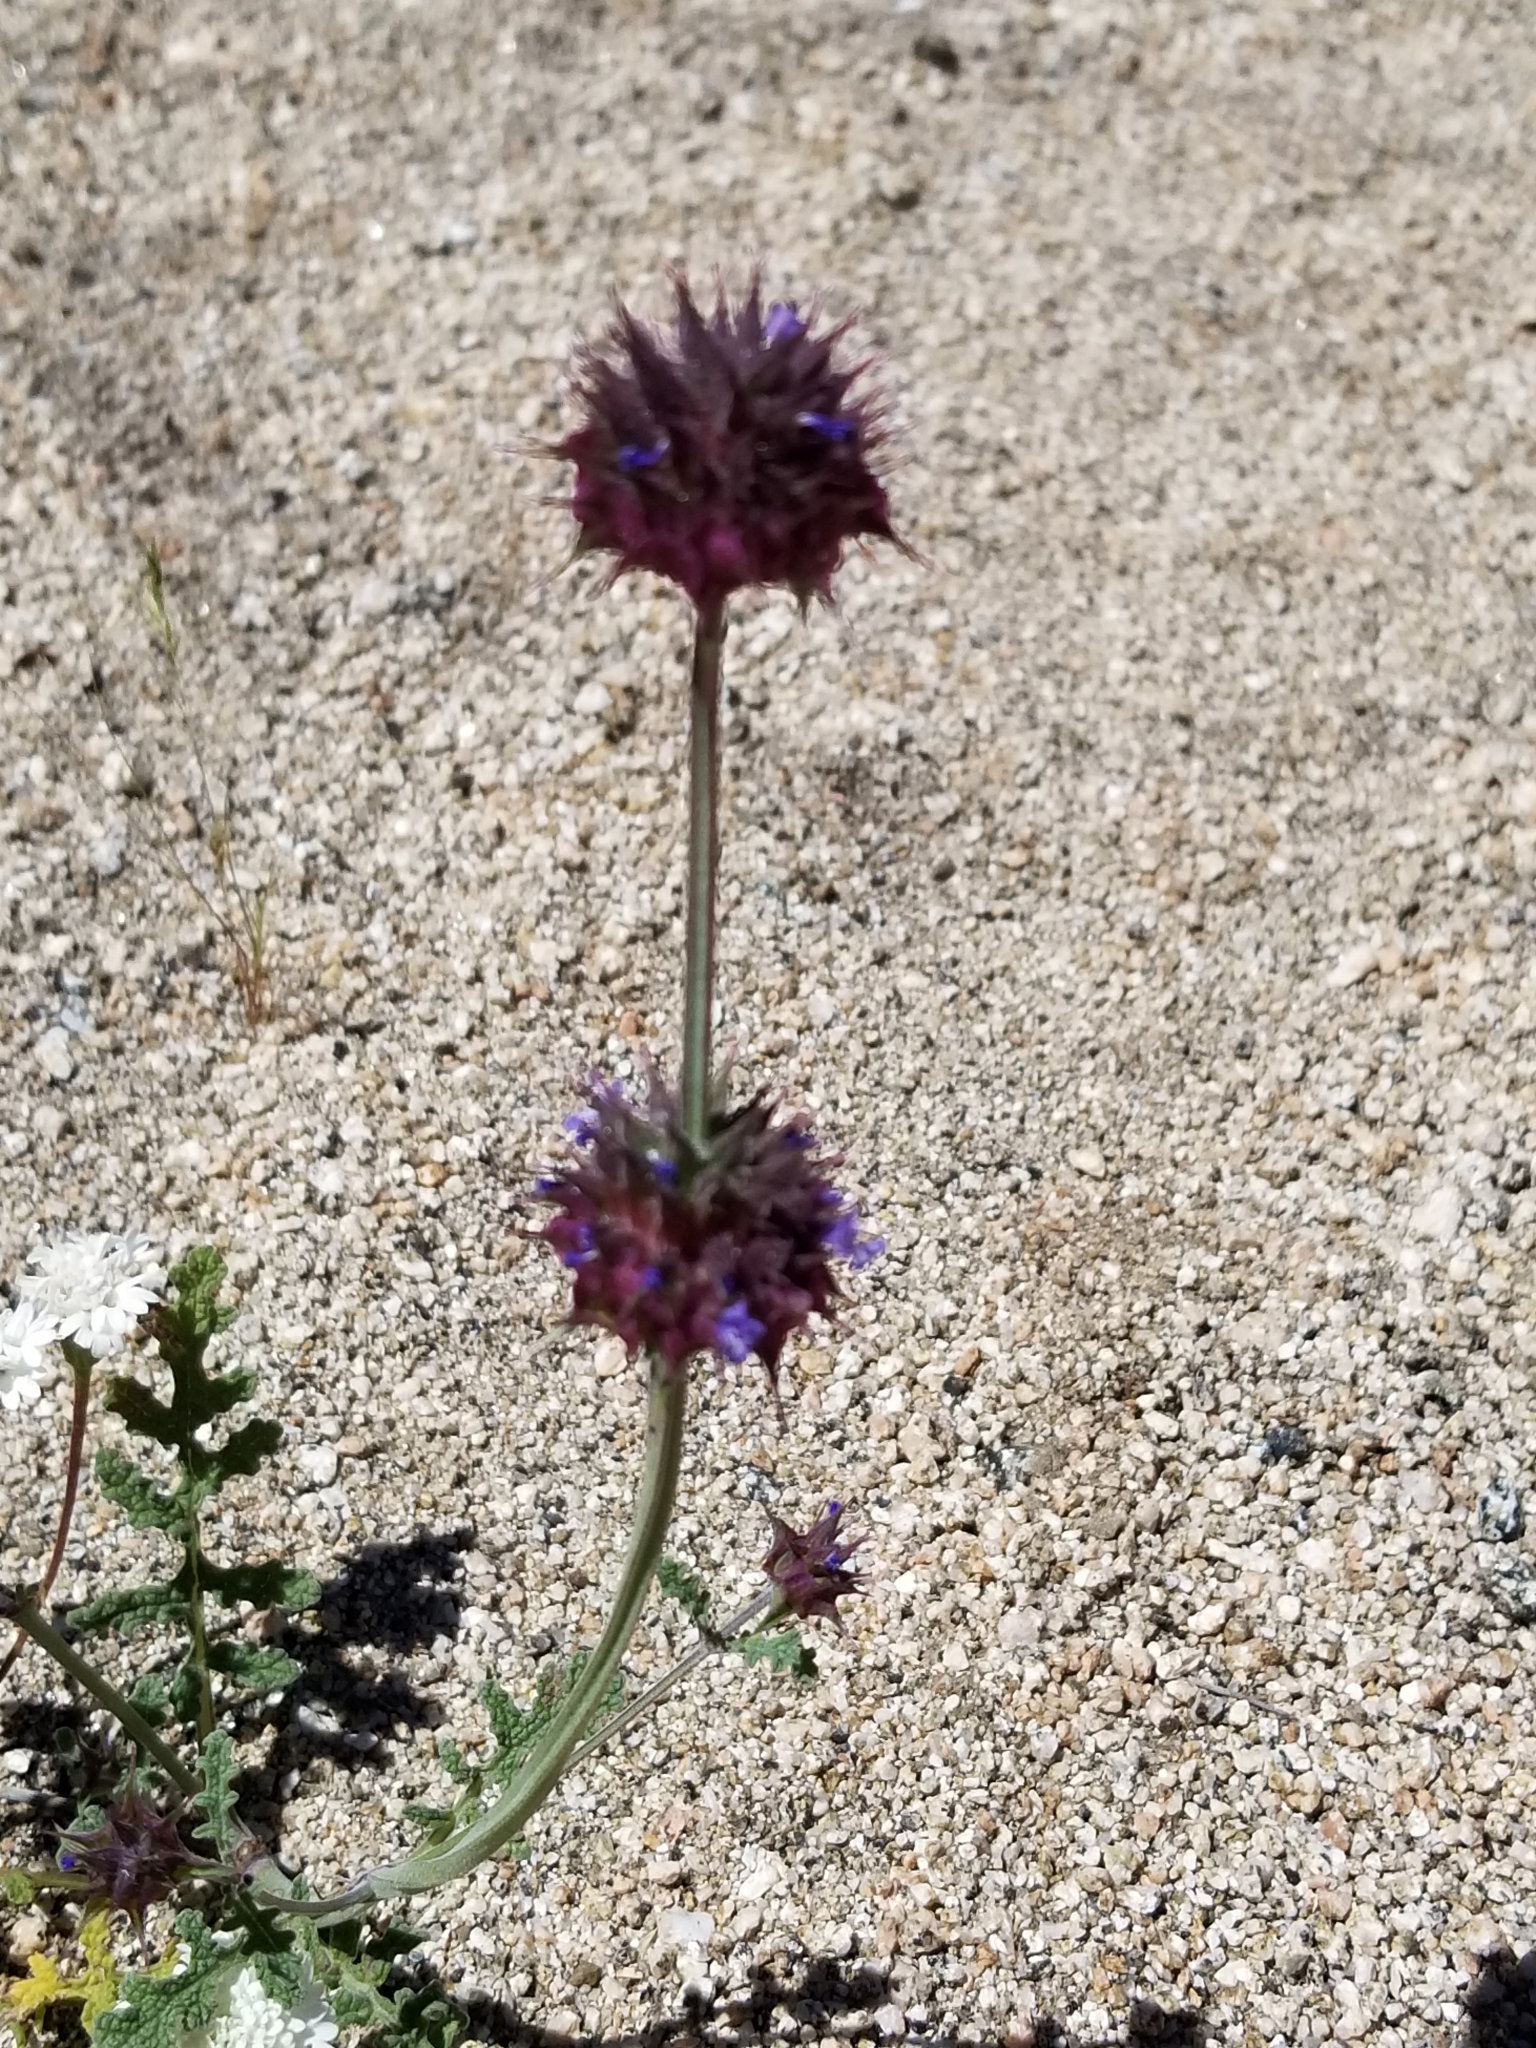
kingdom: Plantae
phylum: Tracheophyta
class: Magnoliopsida
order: Lamiales
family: Lamiaceae
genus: Salvia
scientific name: Salvia columbariae
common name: Chia
